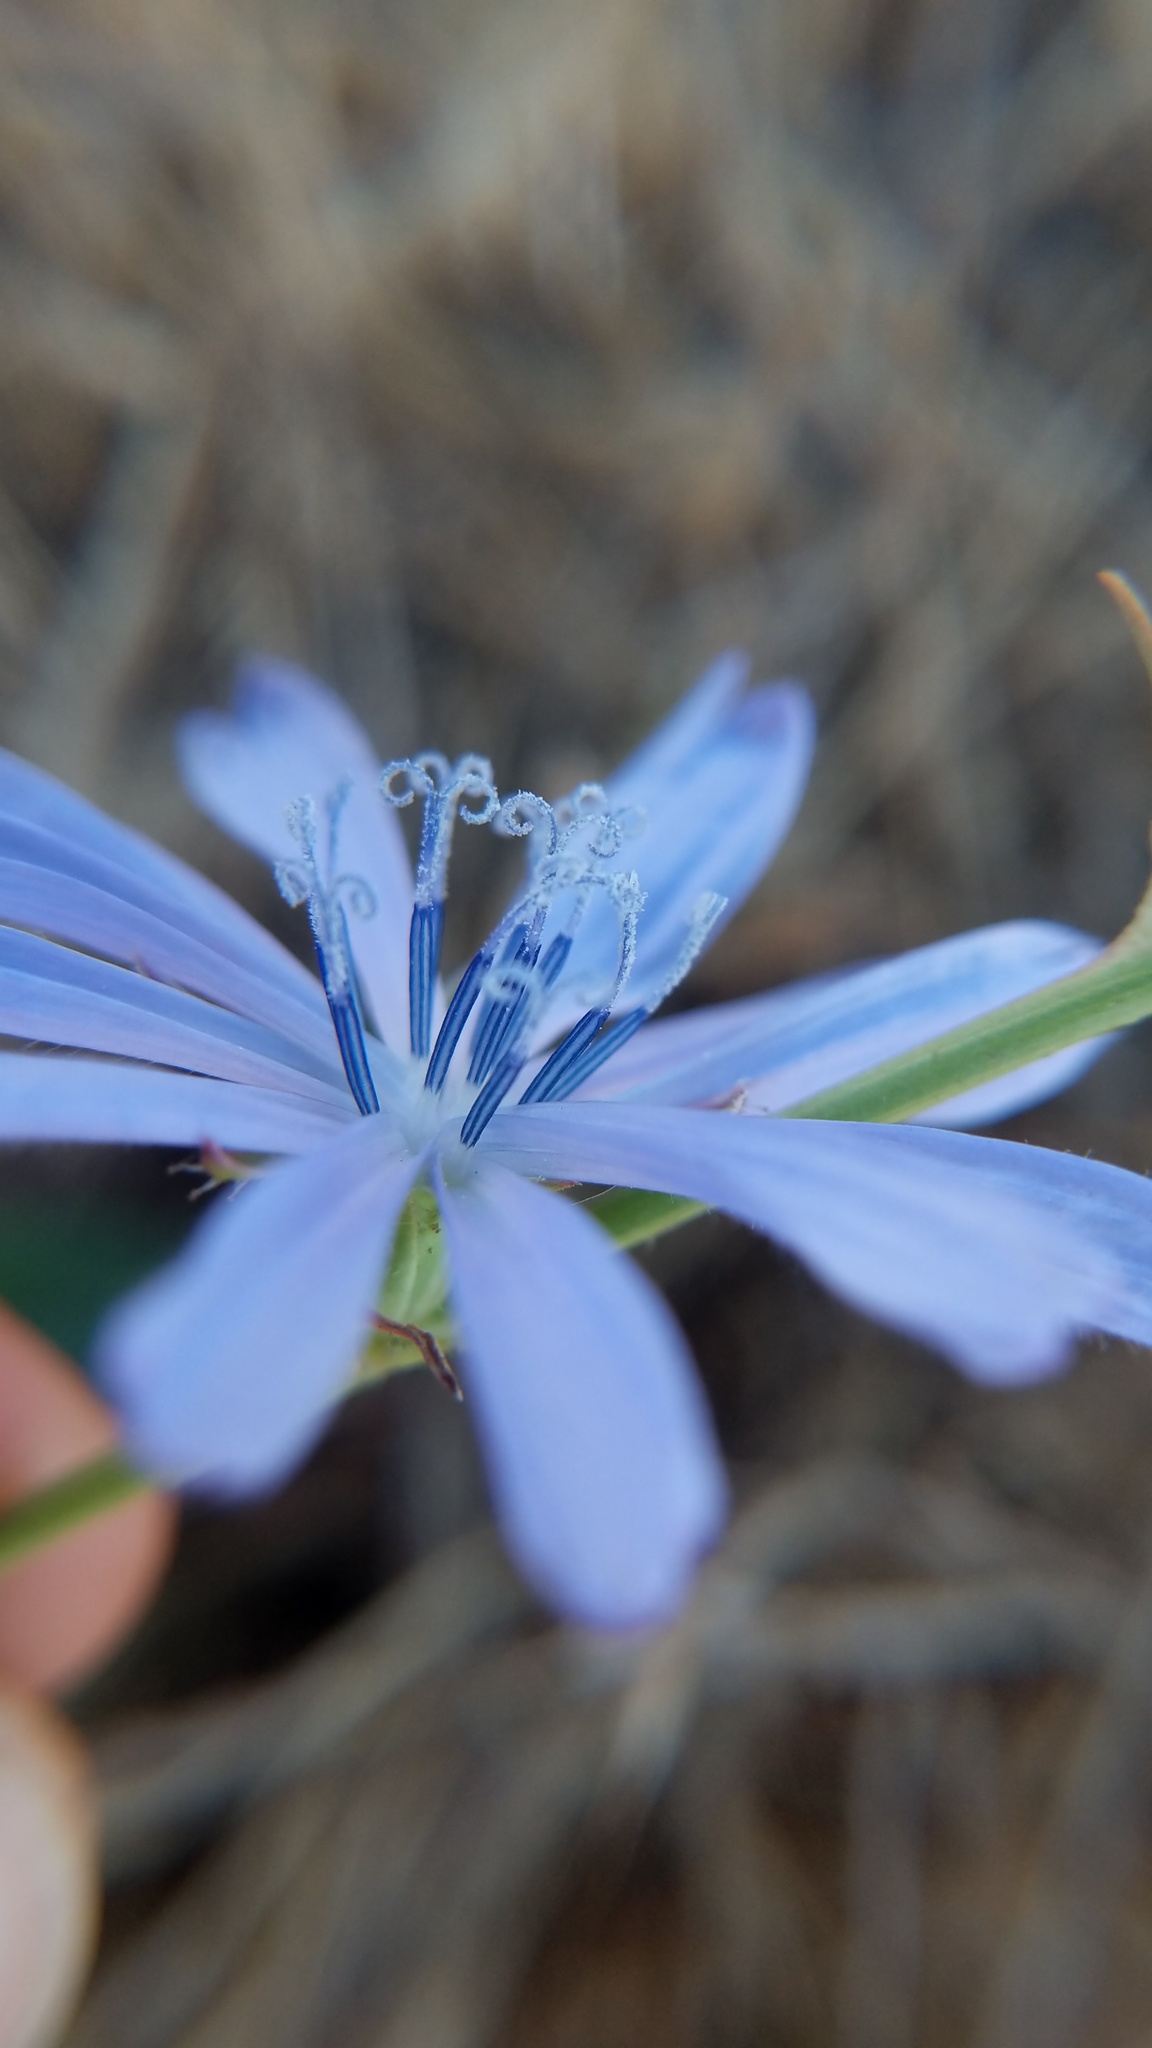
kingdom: Plantae
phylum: Tracheophyta
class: Magnoliopsida
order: Asterales
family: Asteraceae
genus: Cichorium
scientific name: Cichorium intybus
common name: Chicory
